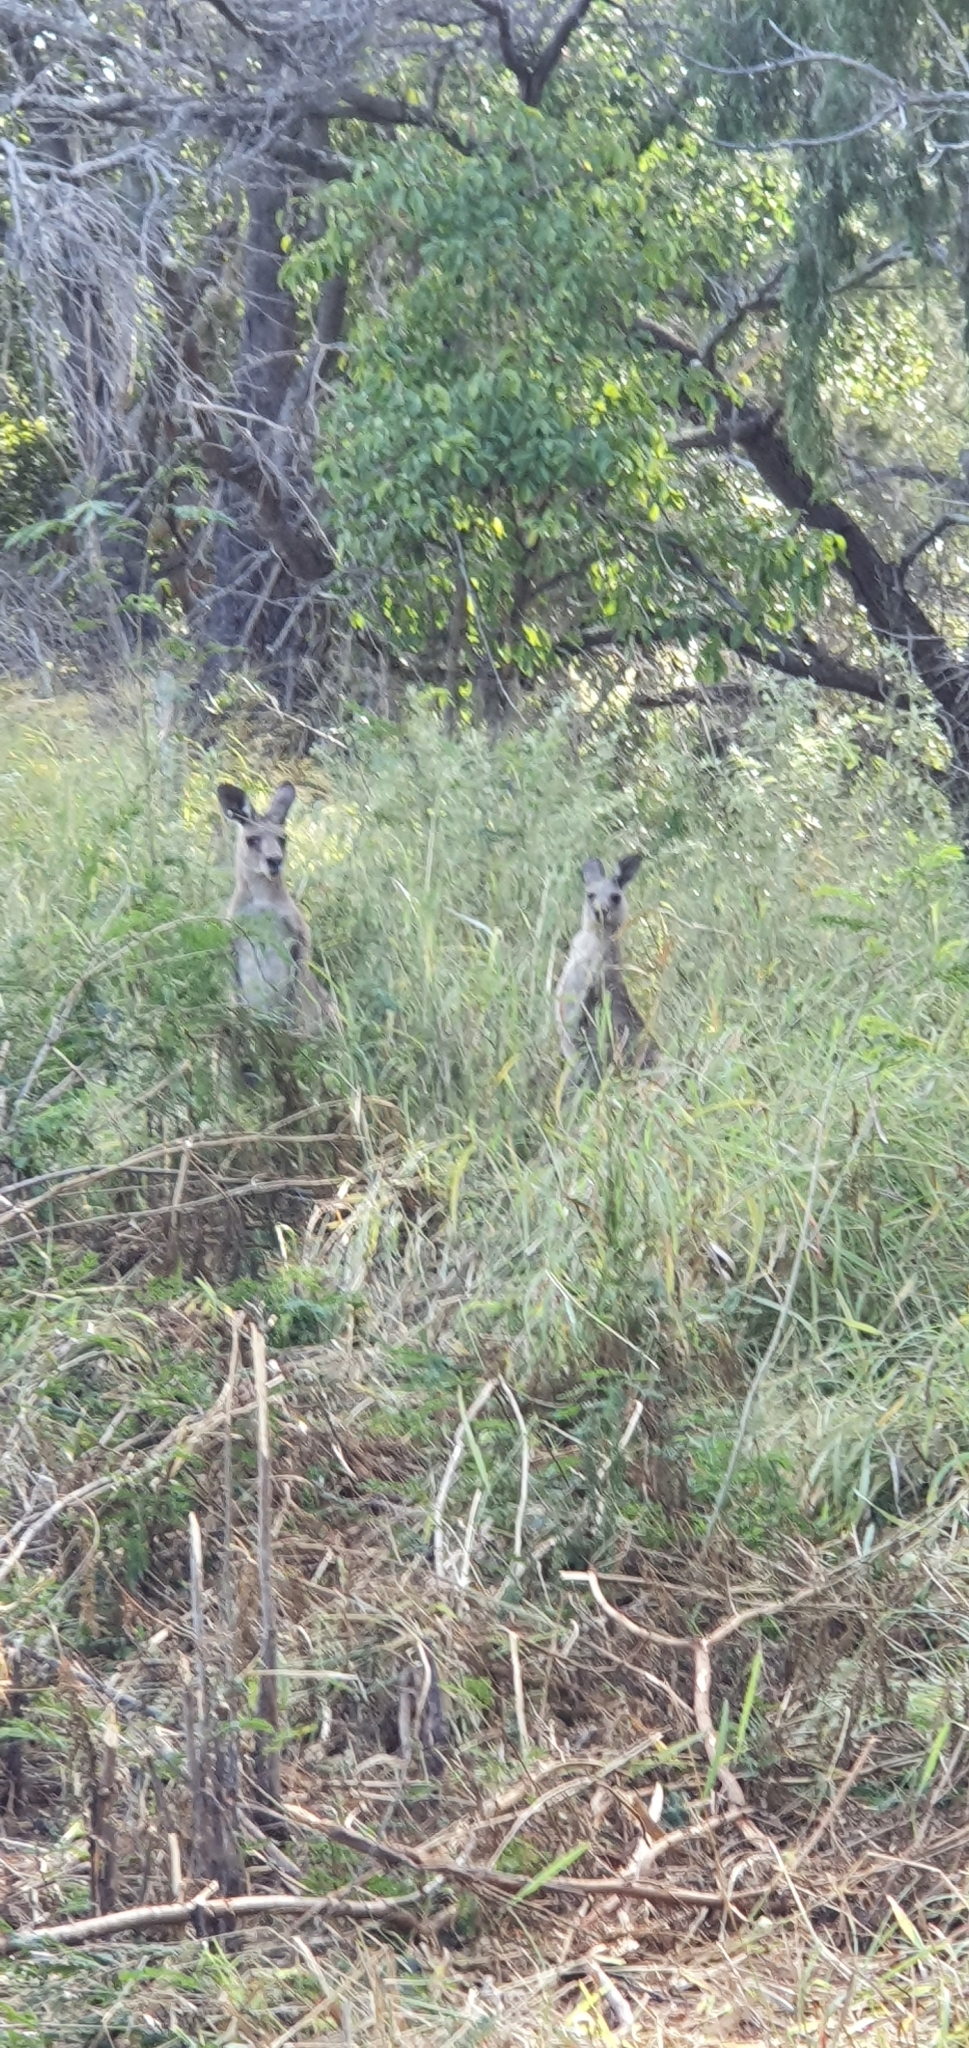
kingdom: Animalia
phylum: Chordata
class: Mammalia
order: Diprotodontia
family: Macropodidae
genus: Macropus
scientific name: Macropus giganteus
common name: Eastern grey kangaroo
